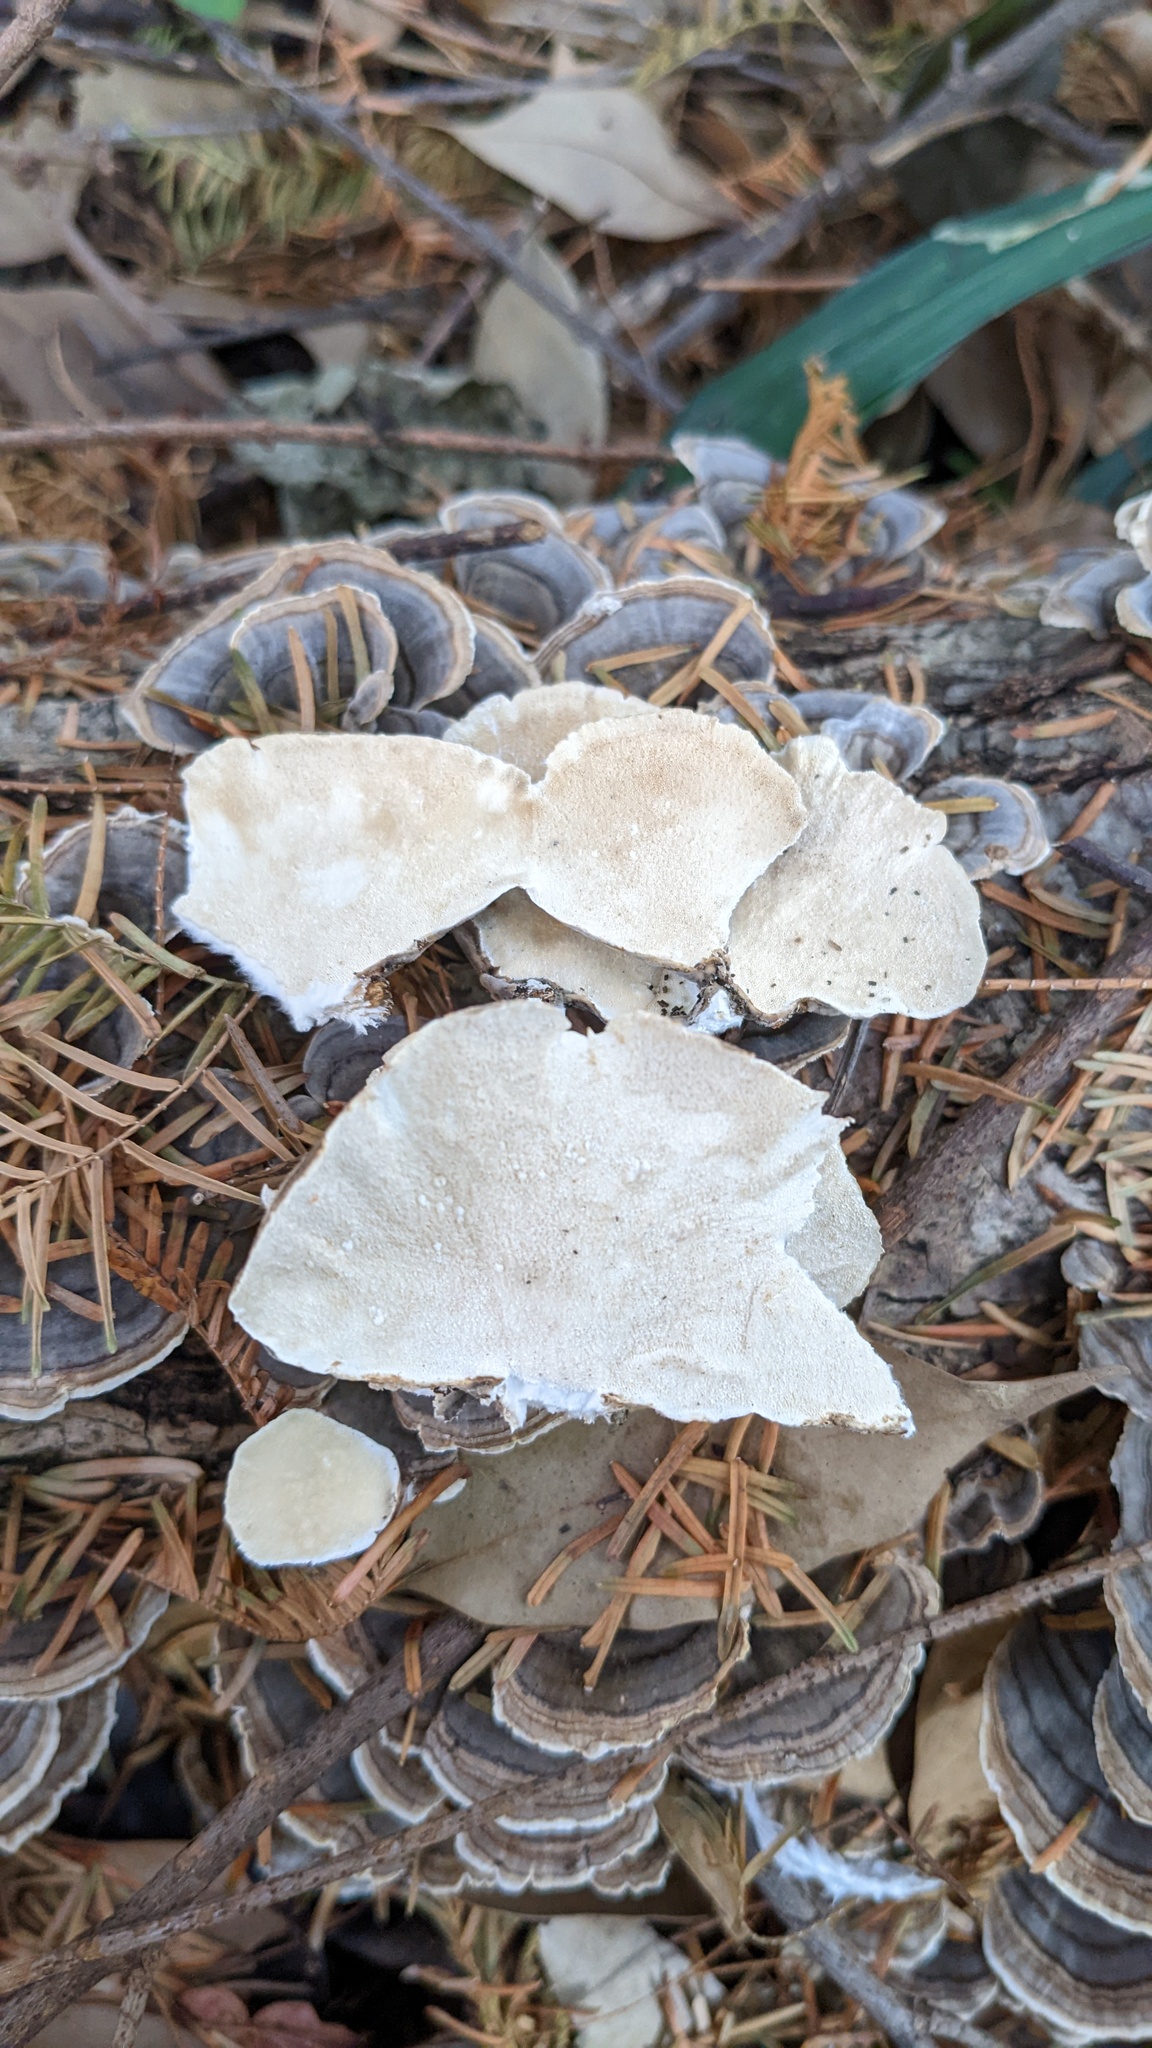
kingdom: Fungi
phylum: Basidiomycota
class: Agaricomycetes
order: Polyporales
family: Polyporaceae
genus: Trametes
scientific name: Trametes versicolor
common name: Turkeytail
